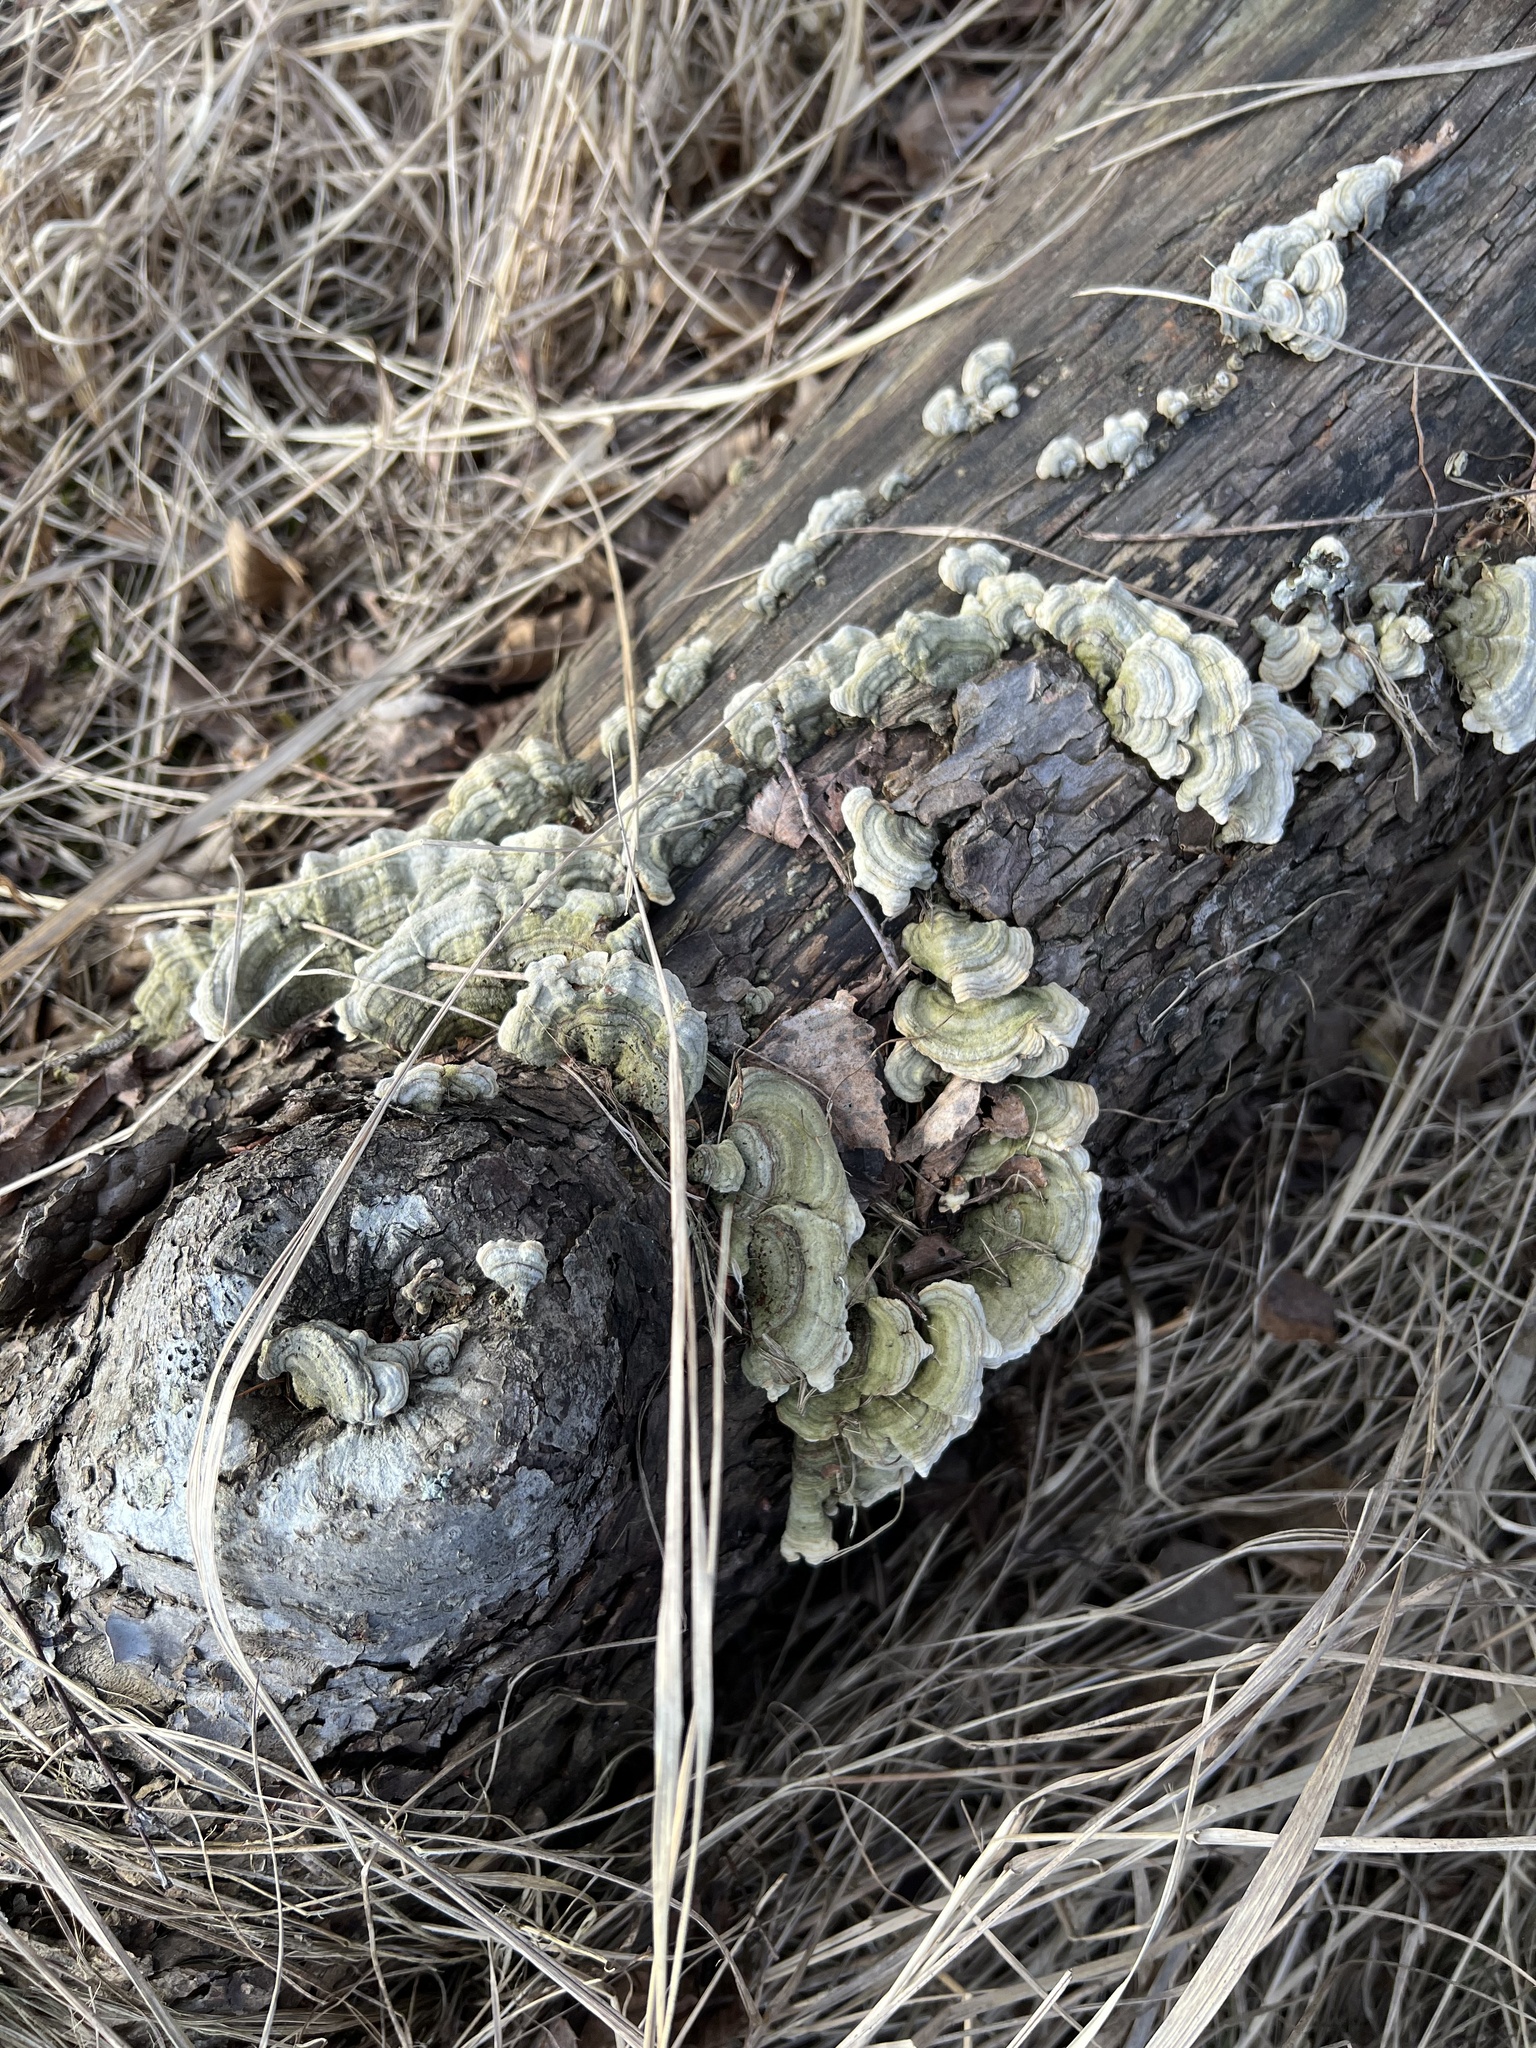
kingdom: Fungi
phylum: Basidiomycota
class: Agaricomycetes
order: Russulales
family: Stereaceae
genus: Stereum
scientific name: Stereum subtomentosum
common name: Yellowing curtain crust
